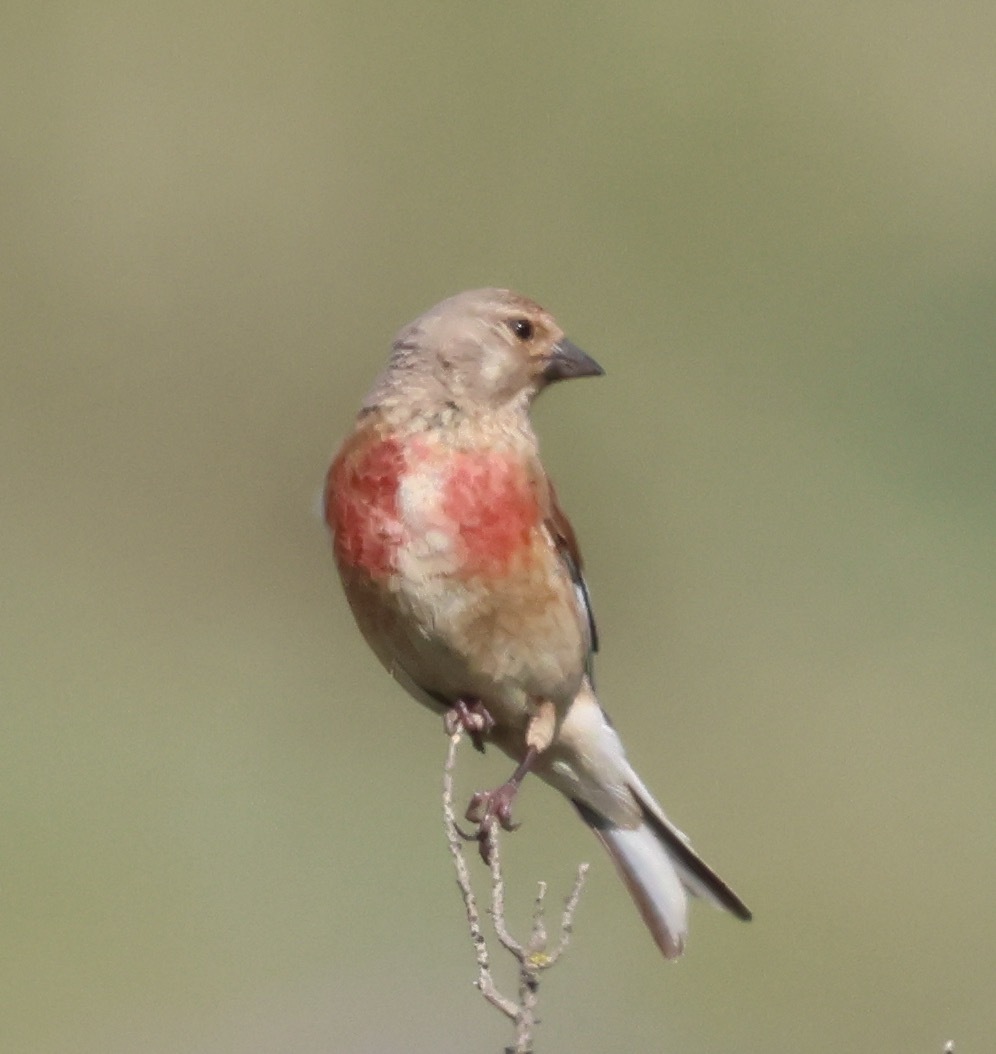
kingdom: Animalia
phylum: Chordata
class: Aves
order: Passeriformes
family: Fringillidae
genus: Linaria
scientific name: Linaria cannabina
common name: Common linnet
